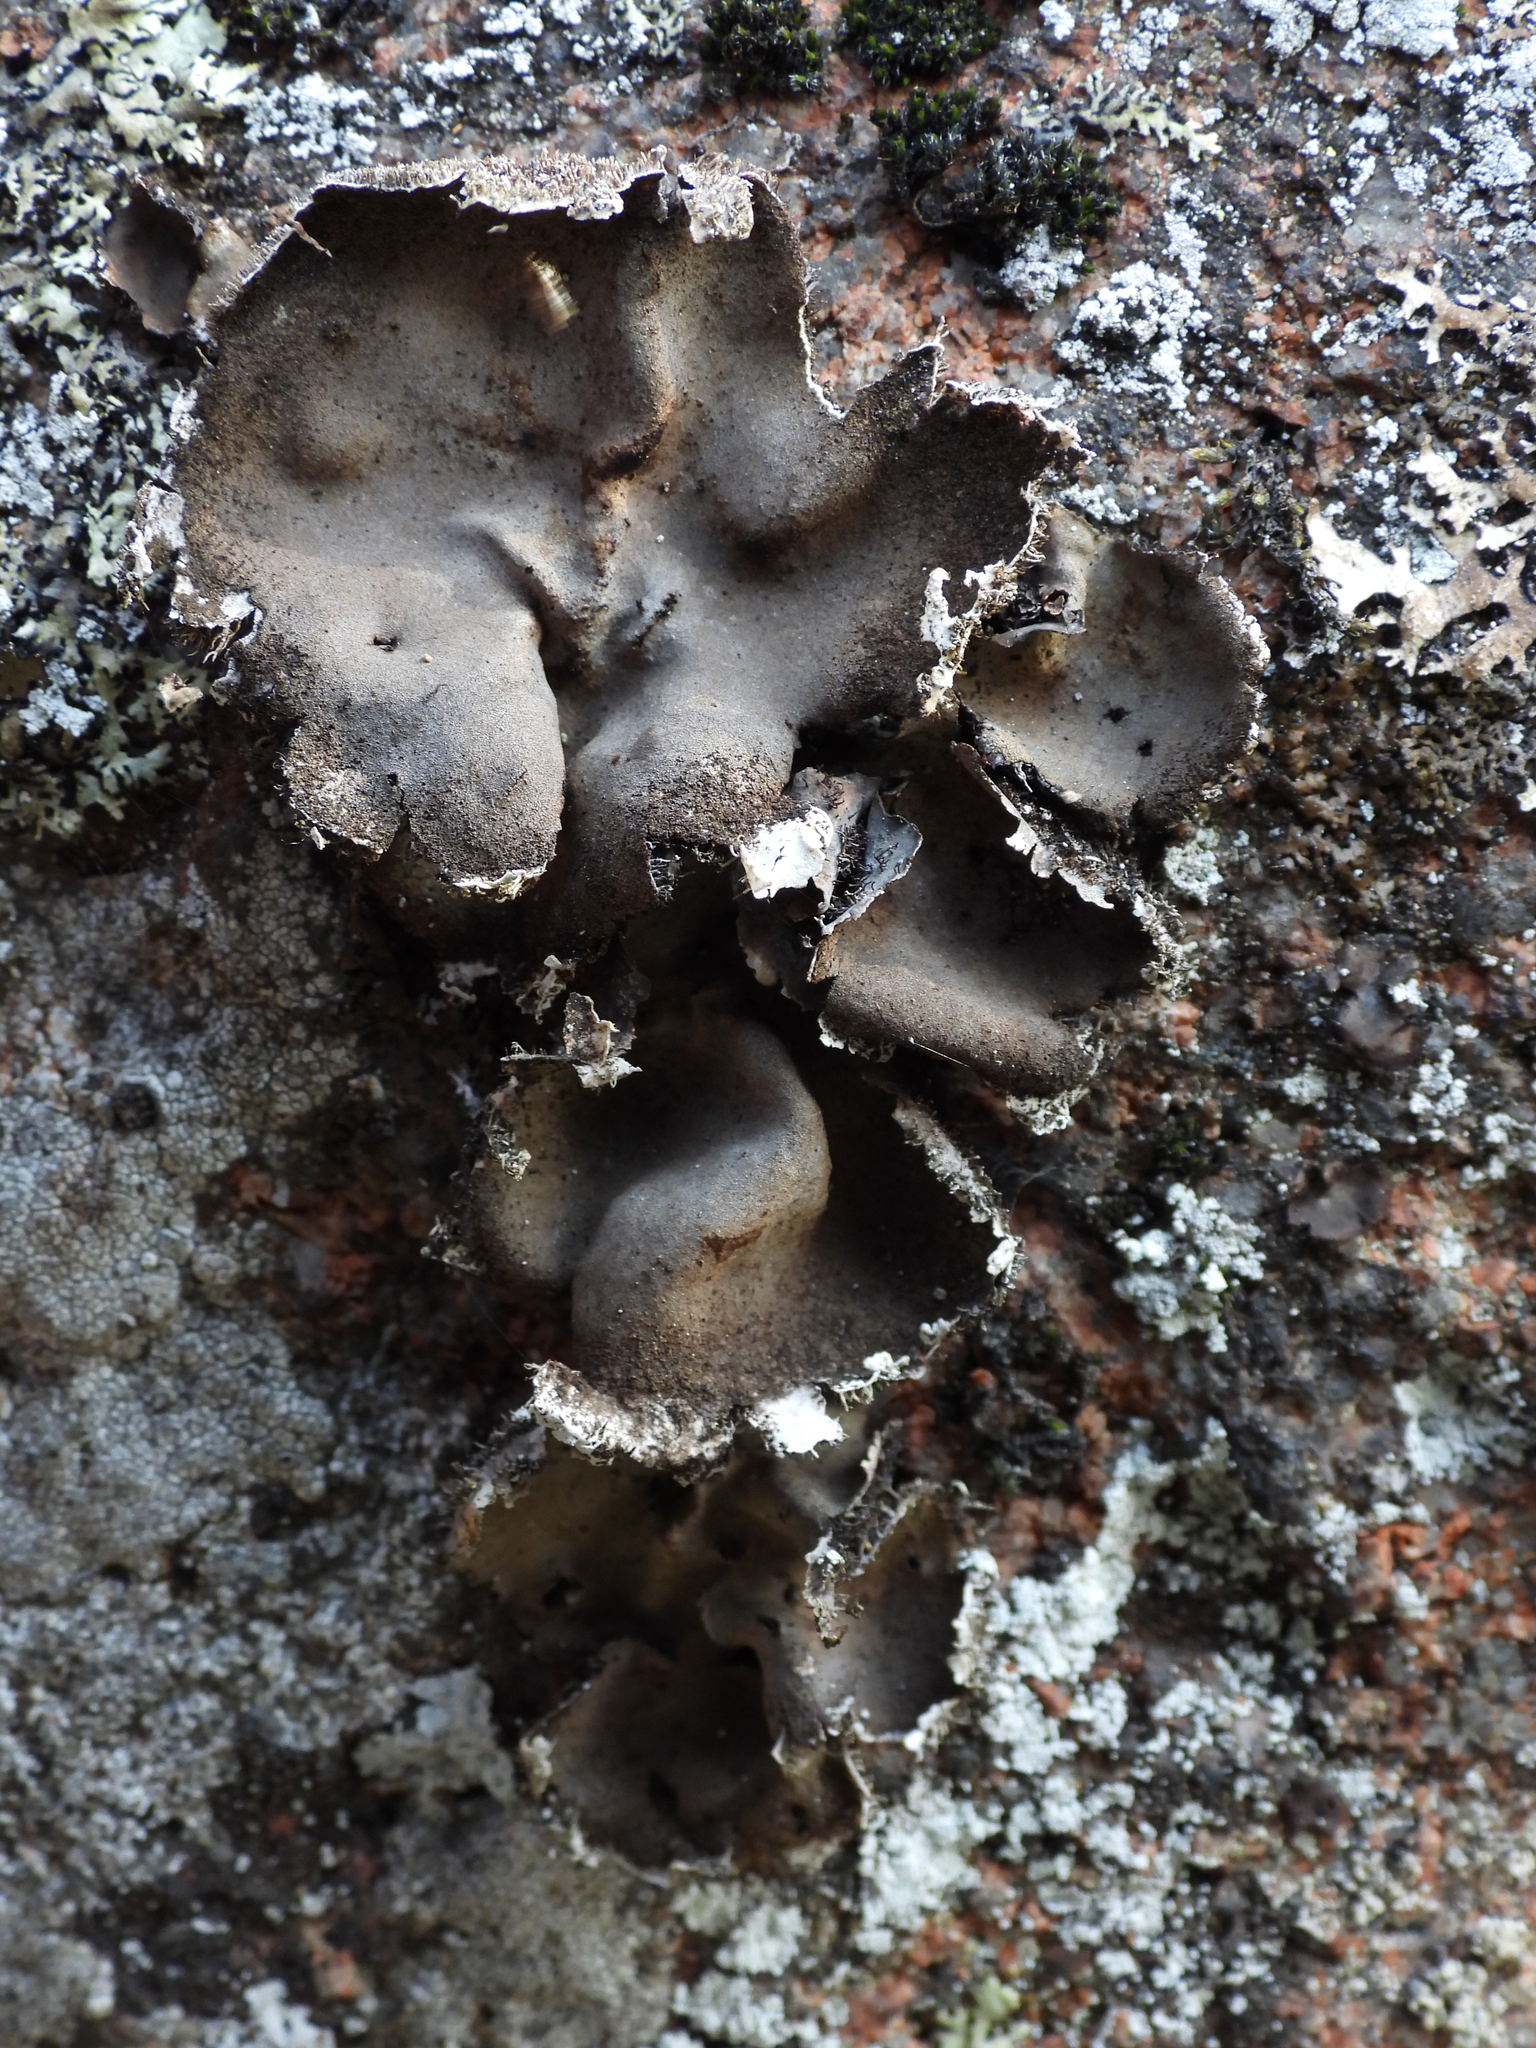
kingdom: Fungi
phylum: Ascomycota
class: Lecanoromycetes
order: Umbilicariales
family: Umbilicariaceae
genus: Umbilicaria
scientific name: Umbilicaria vellea
